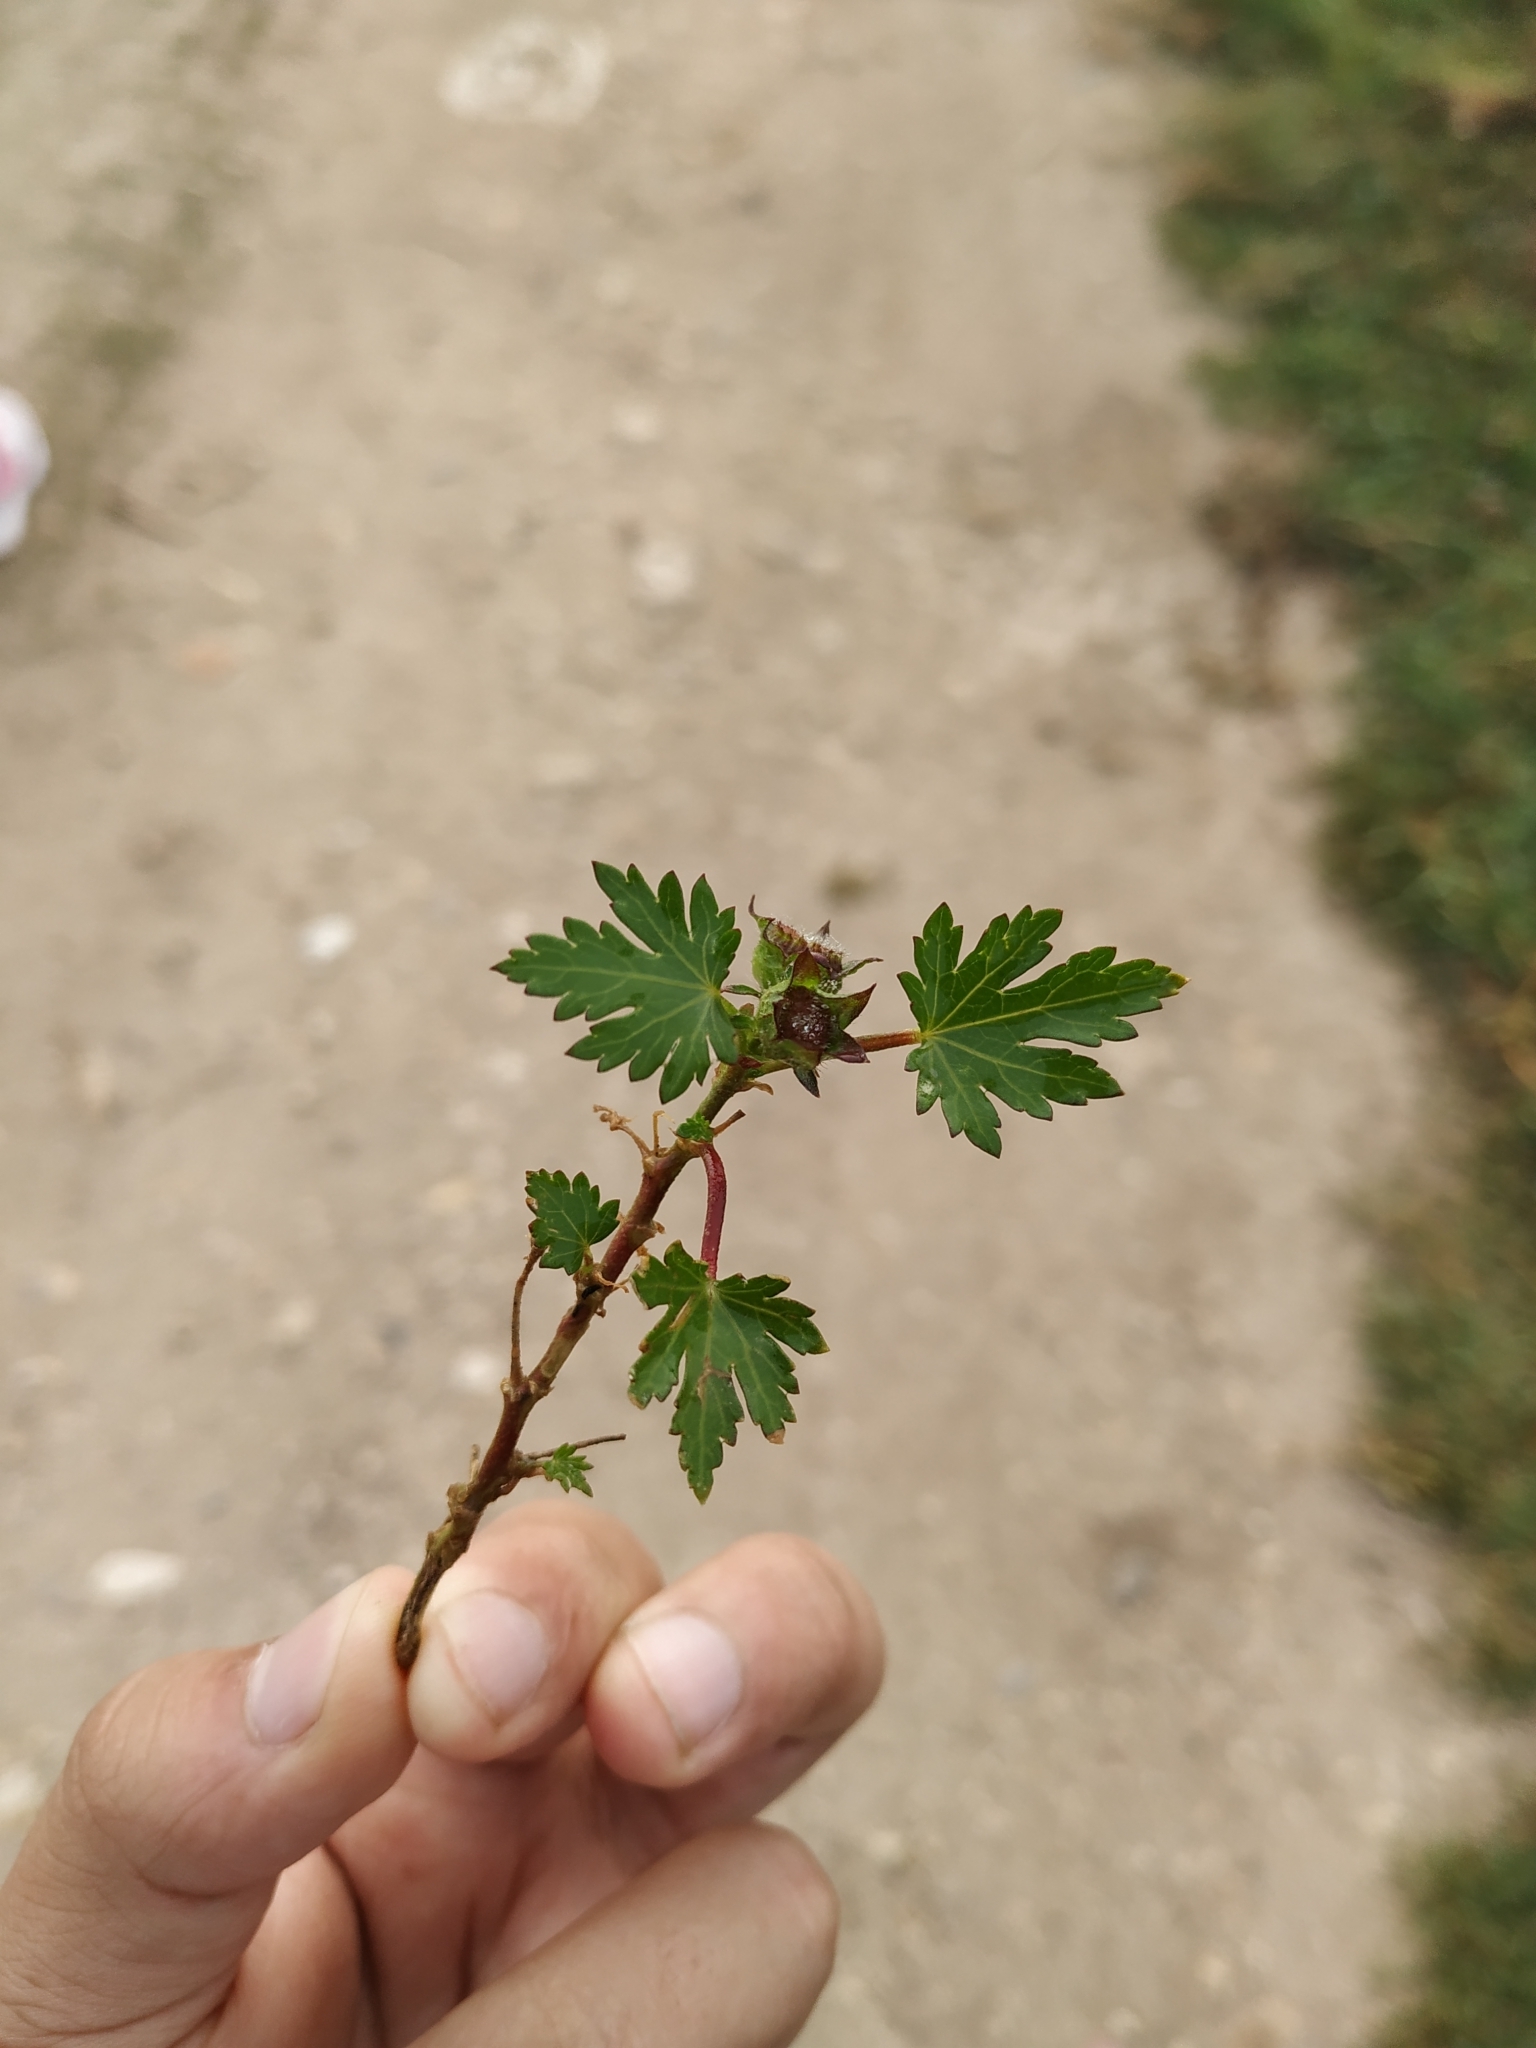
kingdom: Plantae
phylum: Tracheophyta
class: Magnoliopsida
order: Malvales
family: Malvaceae
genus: Modiola
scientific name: Modiola caroliniana
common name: Carolina bristlemallow
